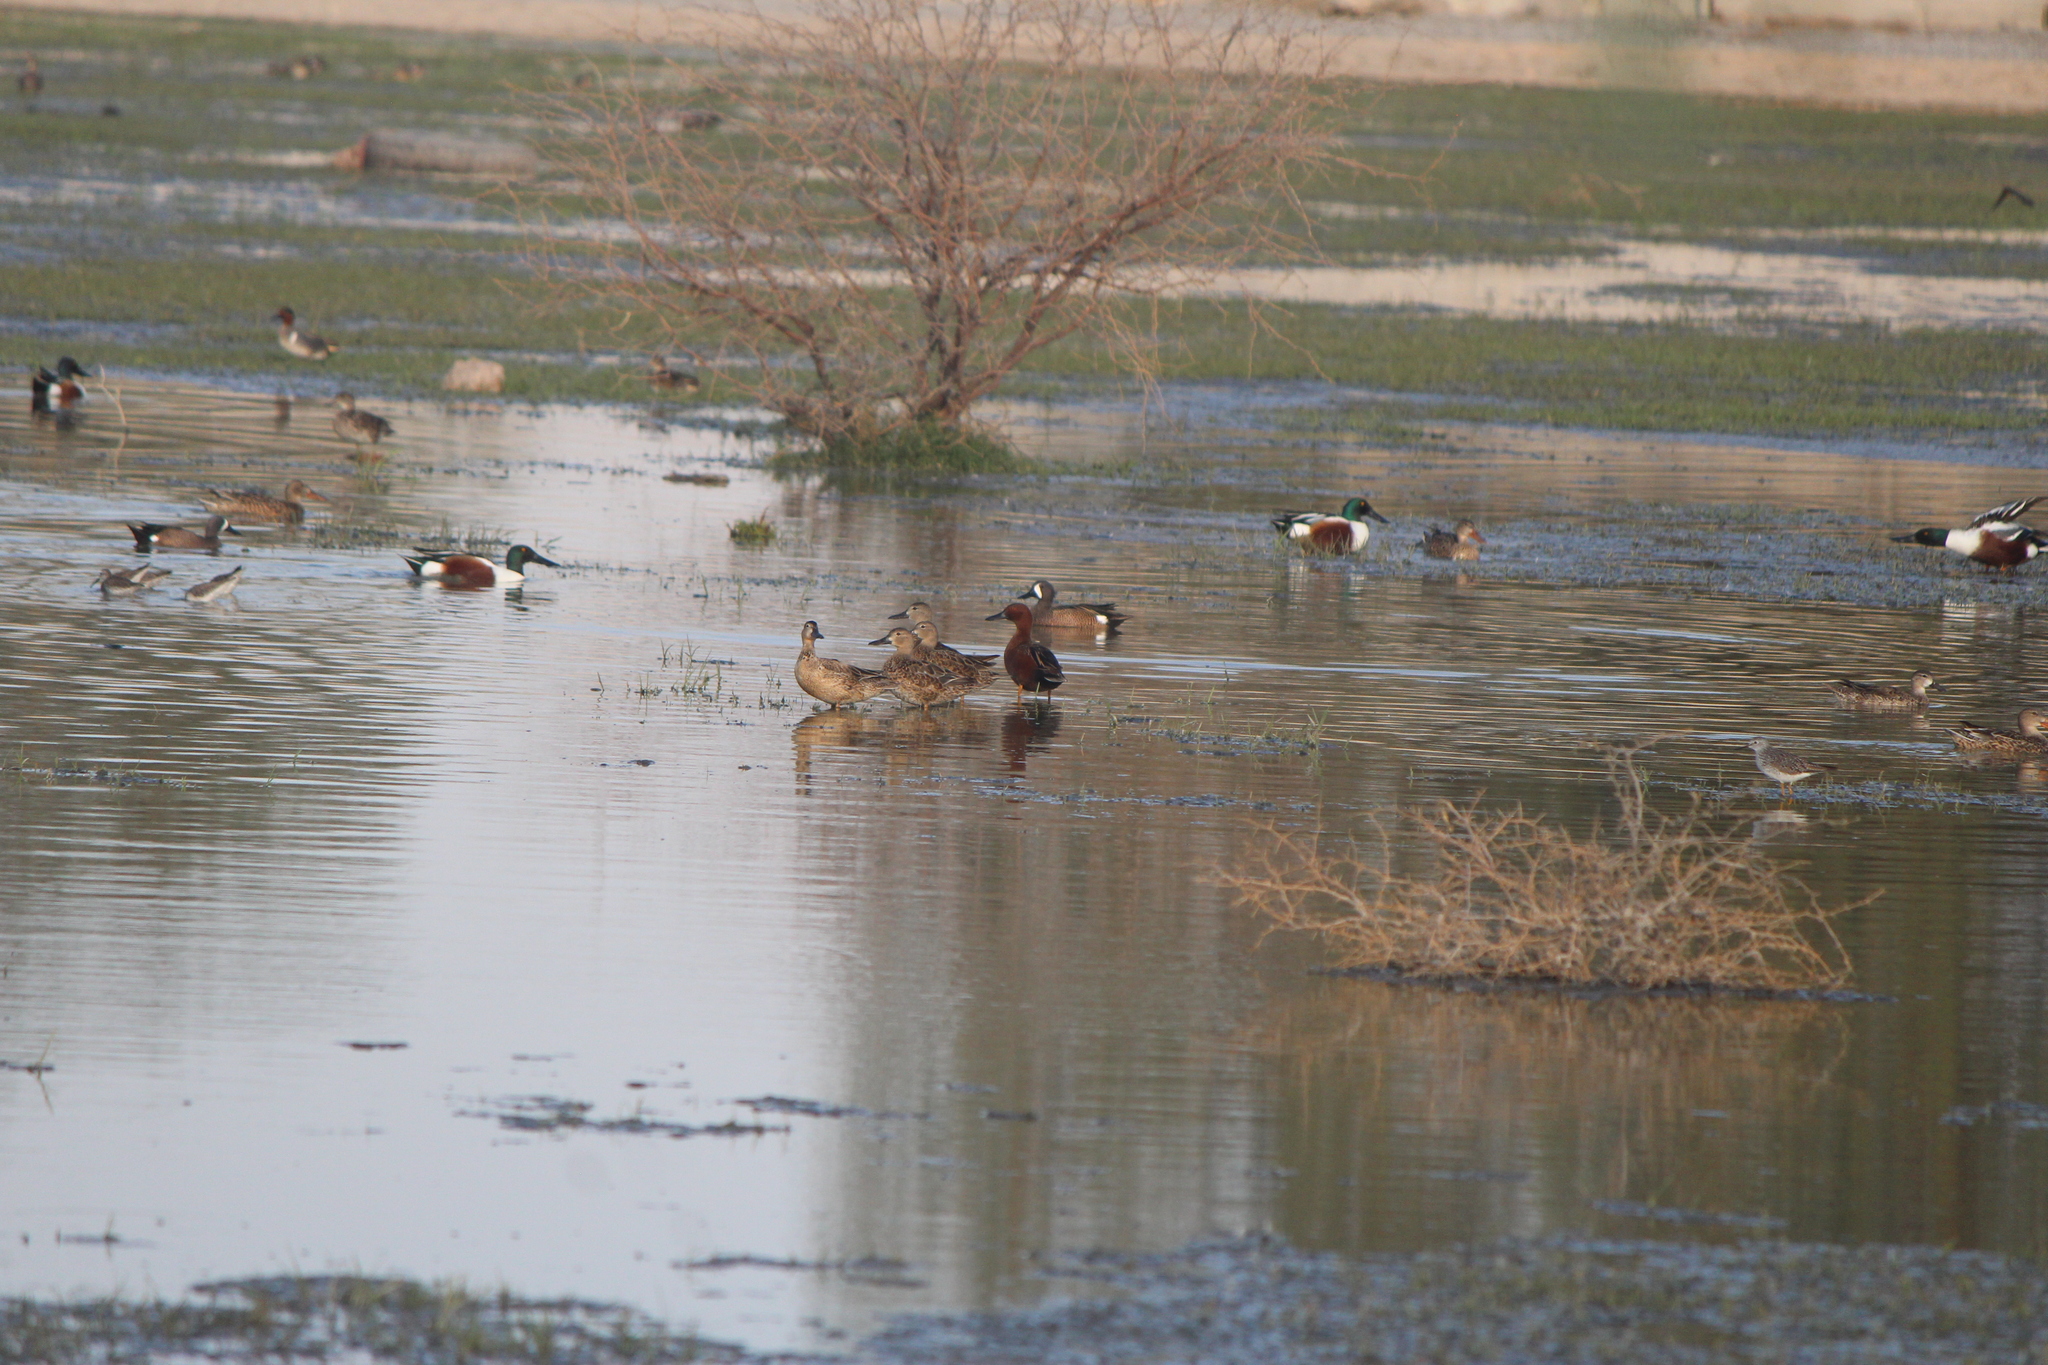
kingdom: Animalia
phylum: Chordata
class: Aves
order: Anseriformes
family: Anatidae
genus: Spatula
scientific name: Spatula cyanoptera
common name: Cinnamon teal
